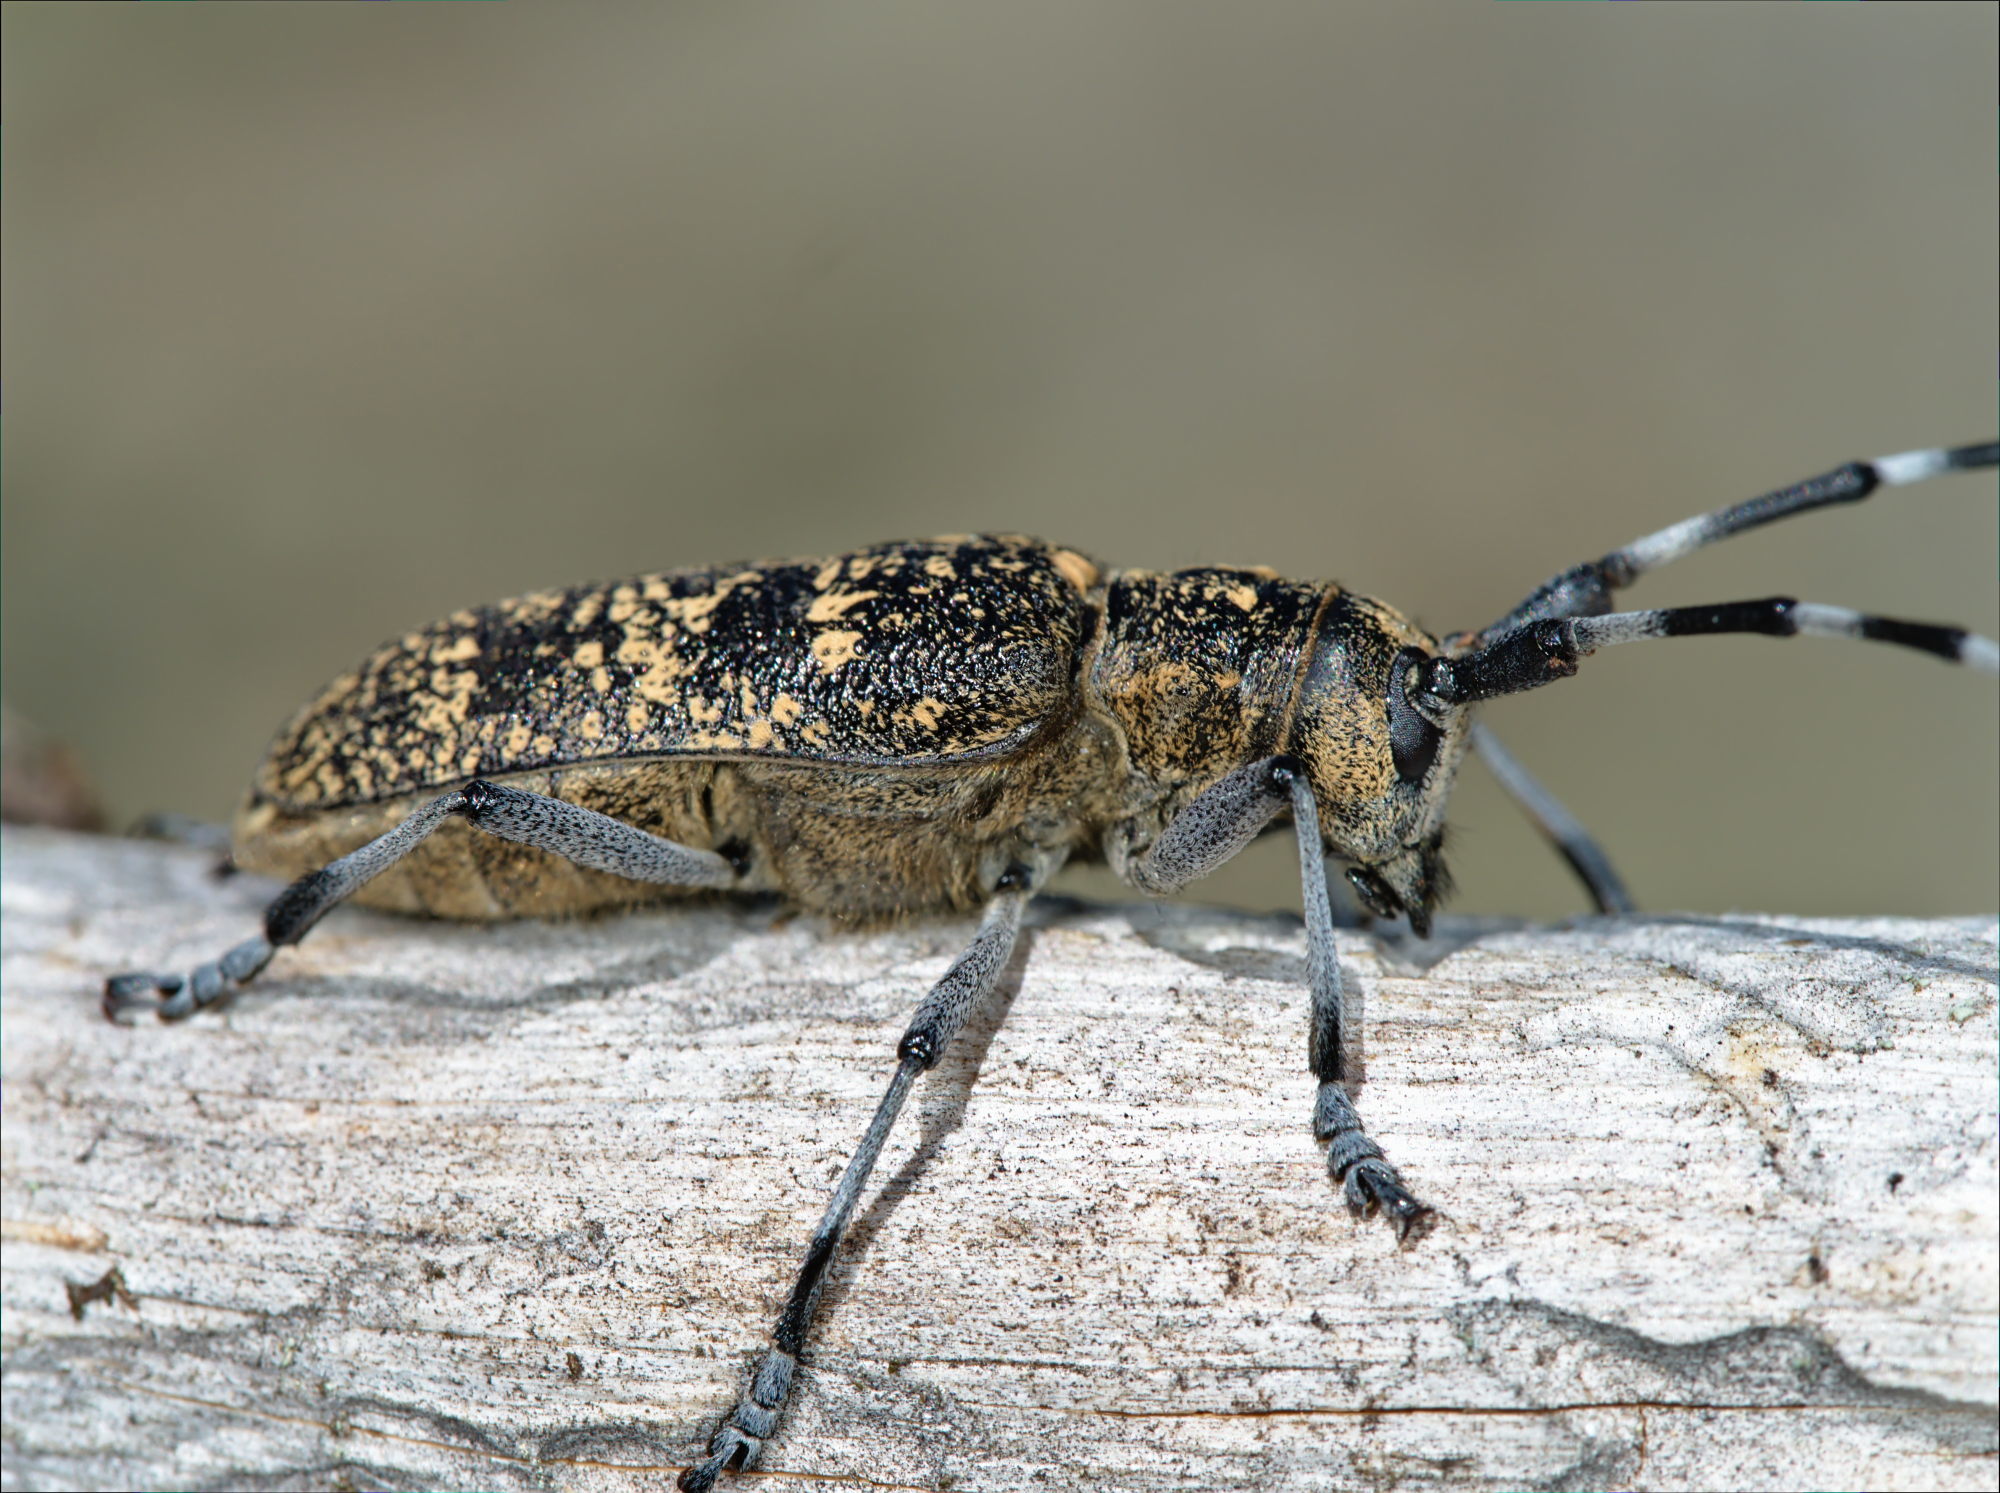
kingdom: Animalia
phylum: Arthropoda
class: Insecta
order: Coleoptera
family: Cerambycidae
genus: Monochamus
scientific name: Monochamus sutor
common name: Pine sawyer
